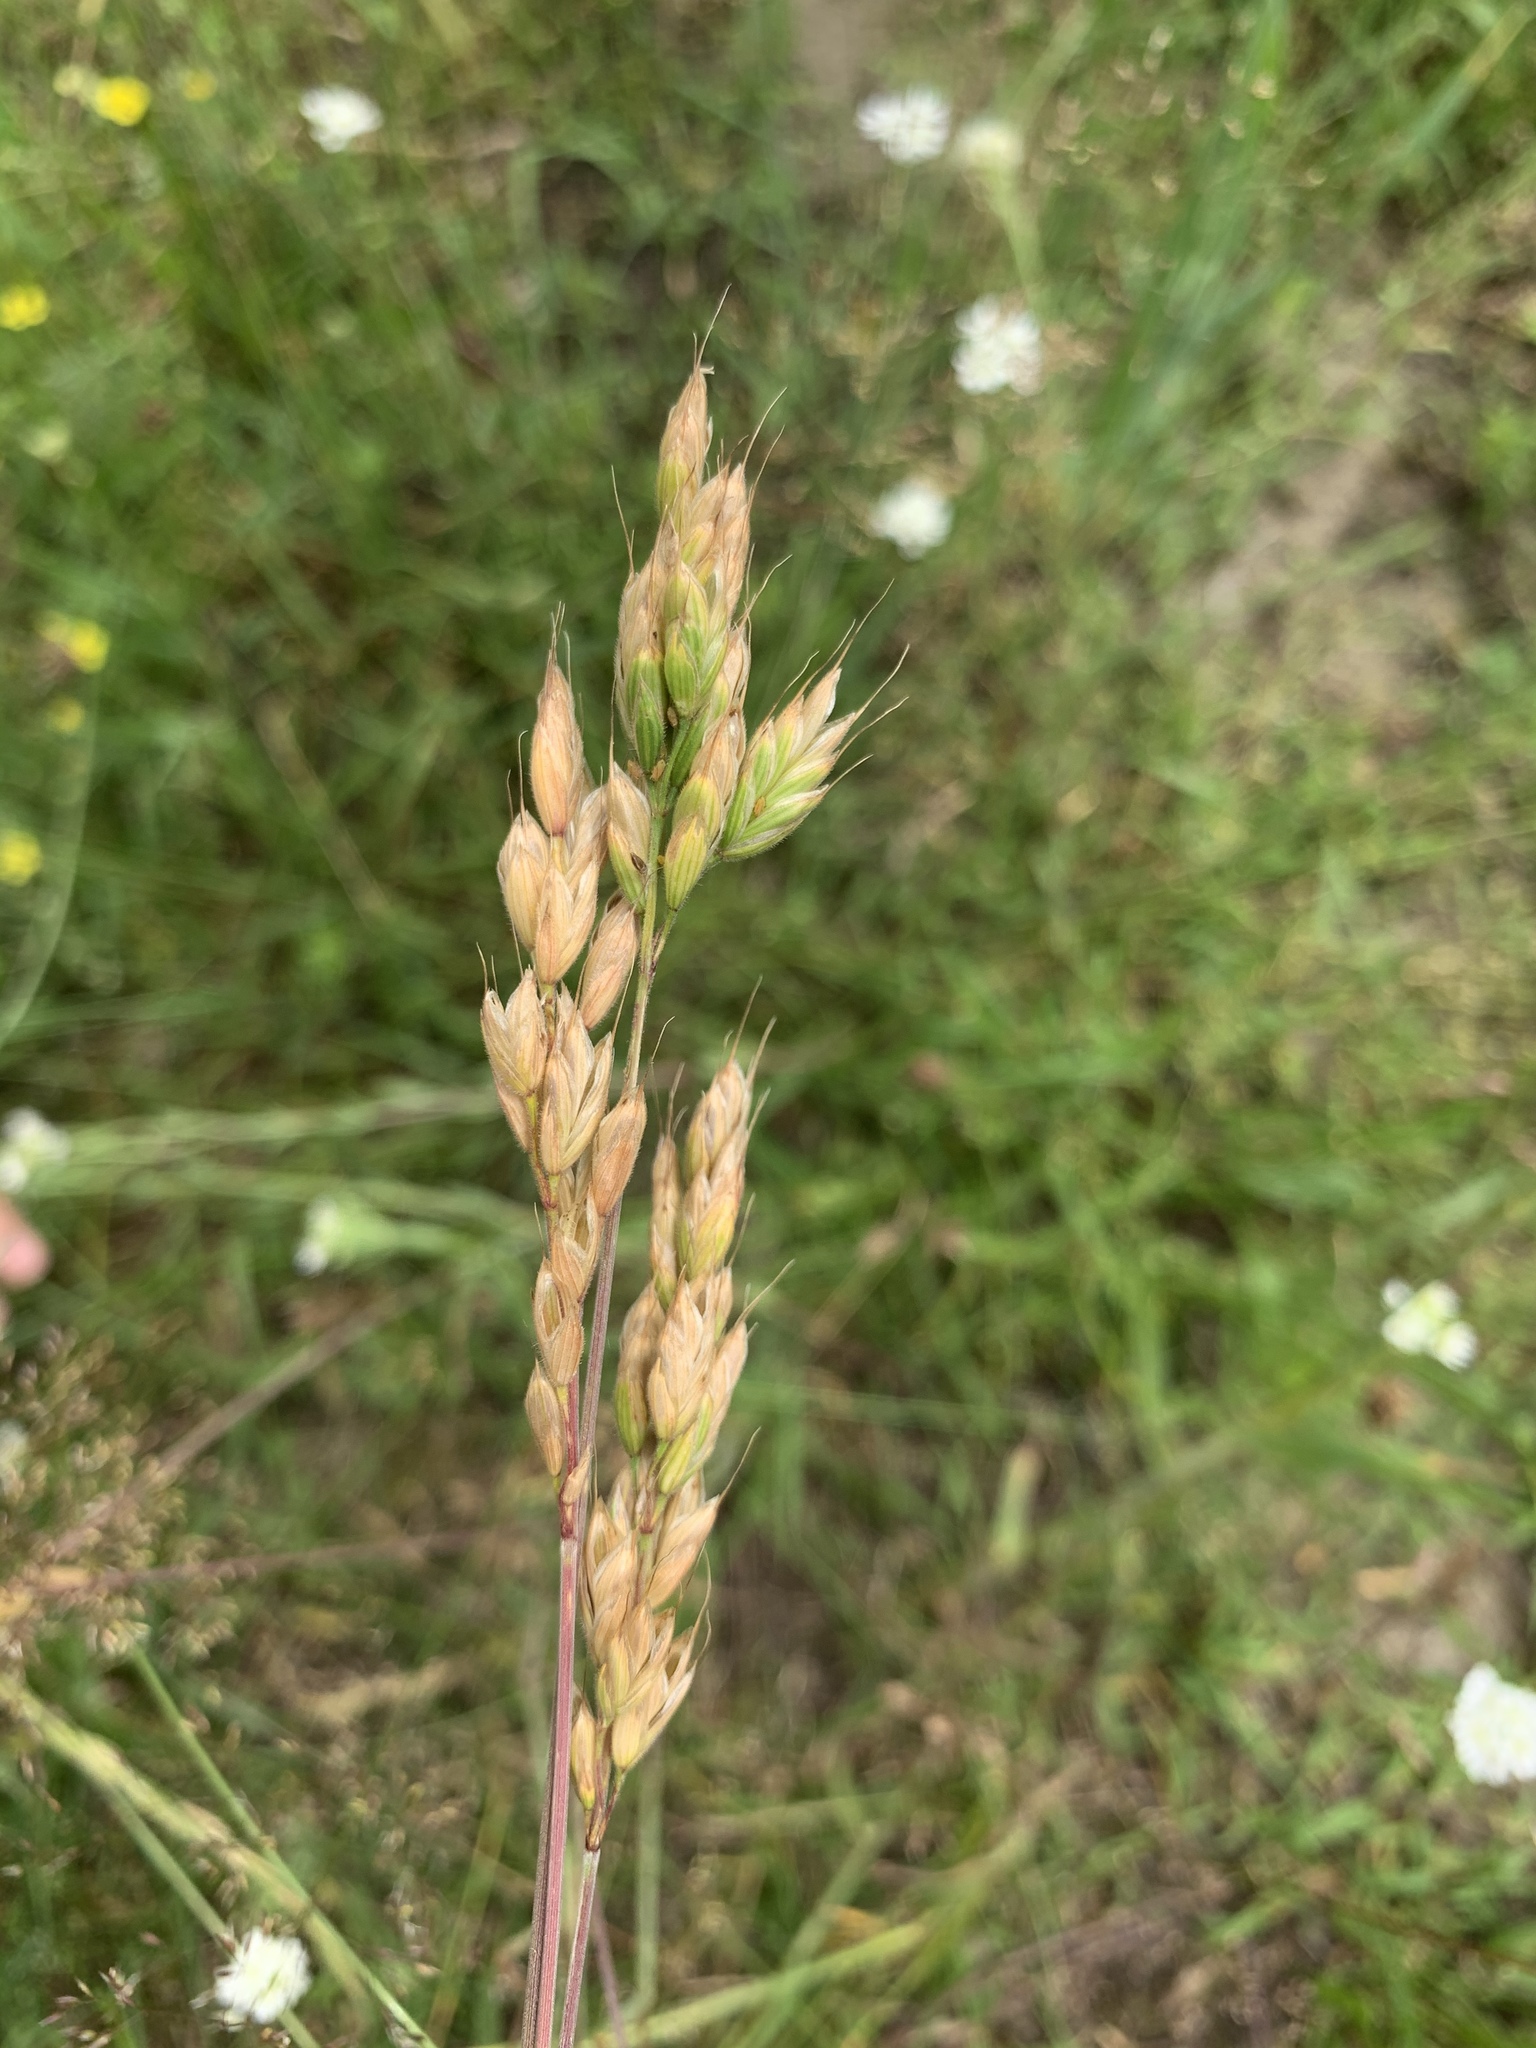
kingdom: Plantae
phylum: Tracheophyta
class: Liliopsida
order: Poales
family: Poaceae
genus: Bromus
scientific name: Bromus hordeaceus
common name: Soft brome
